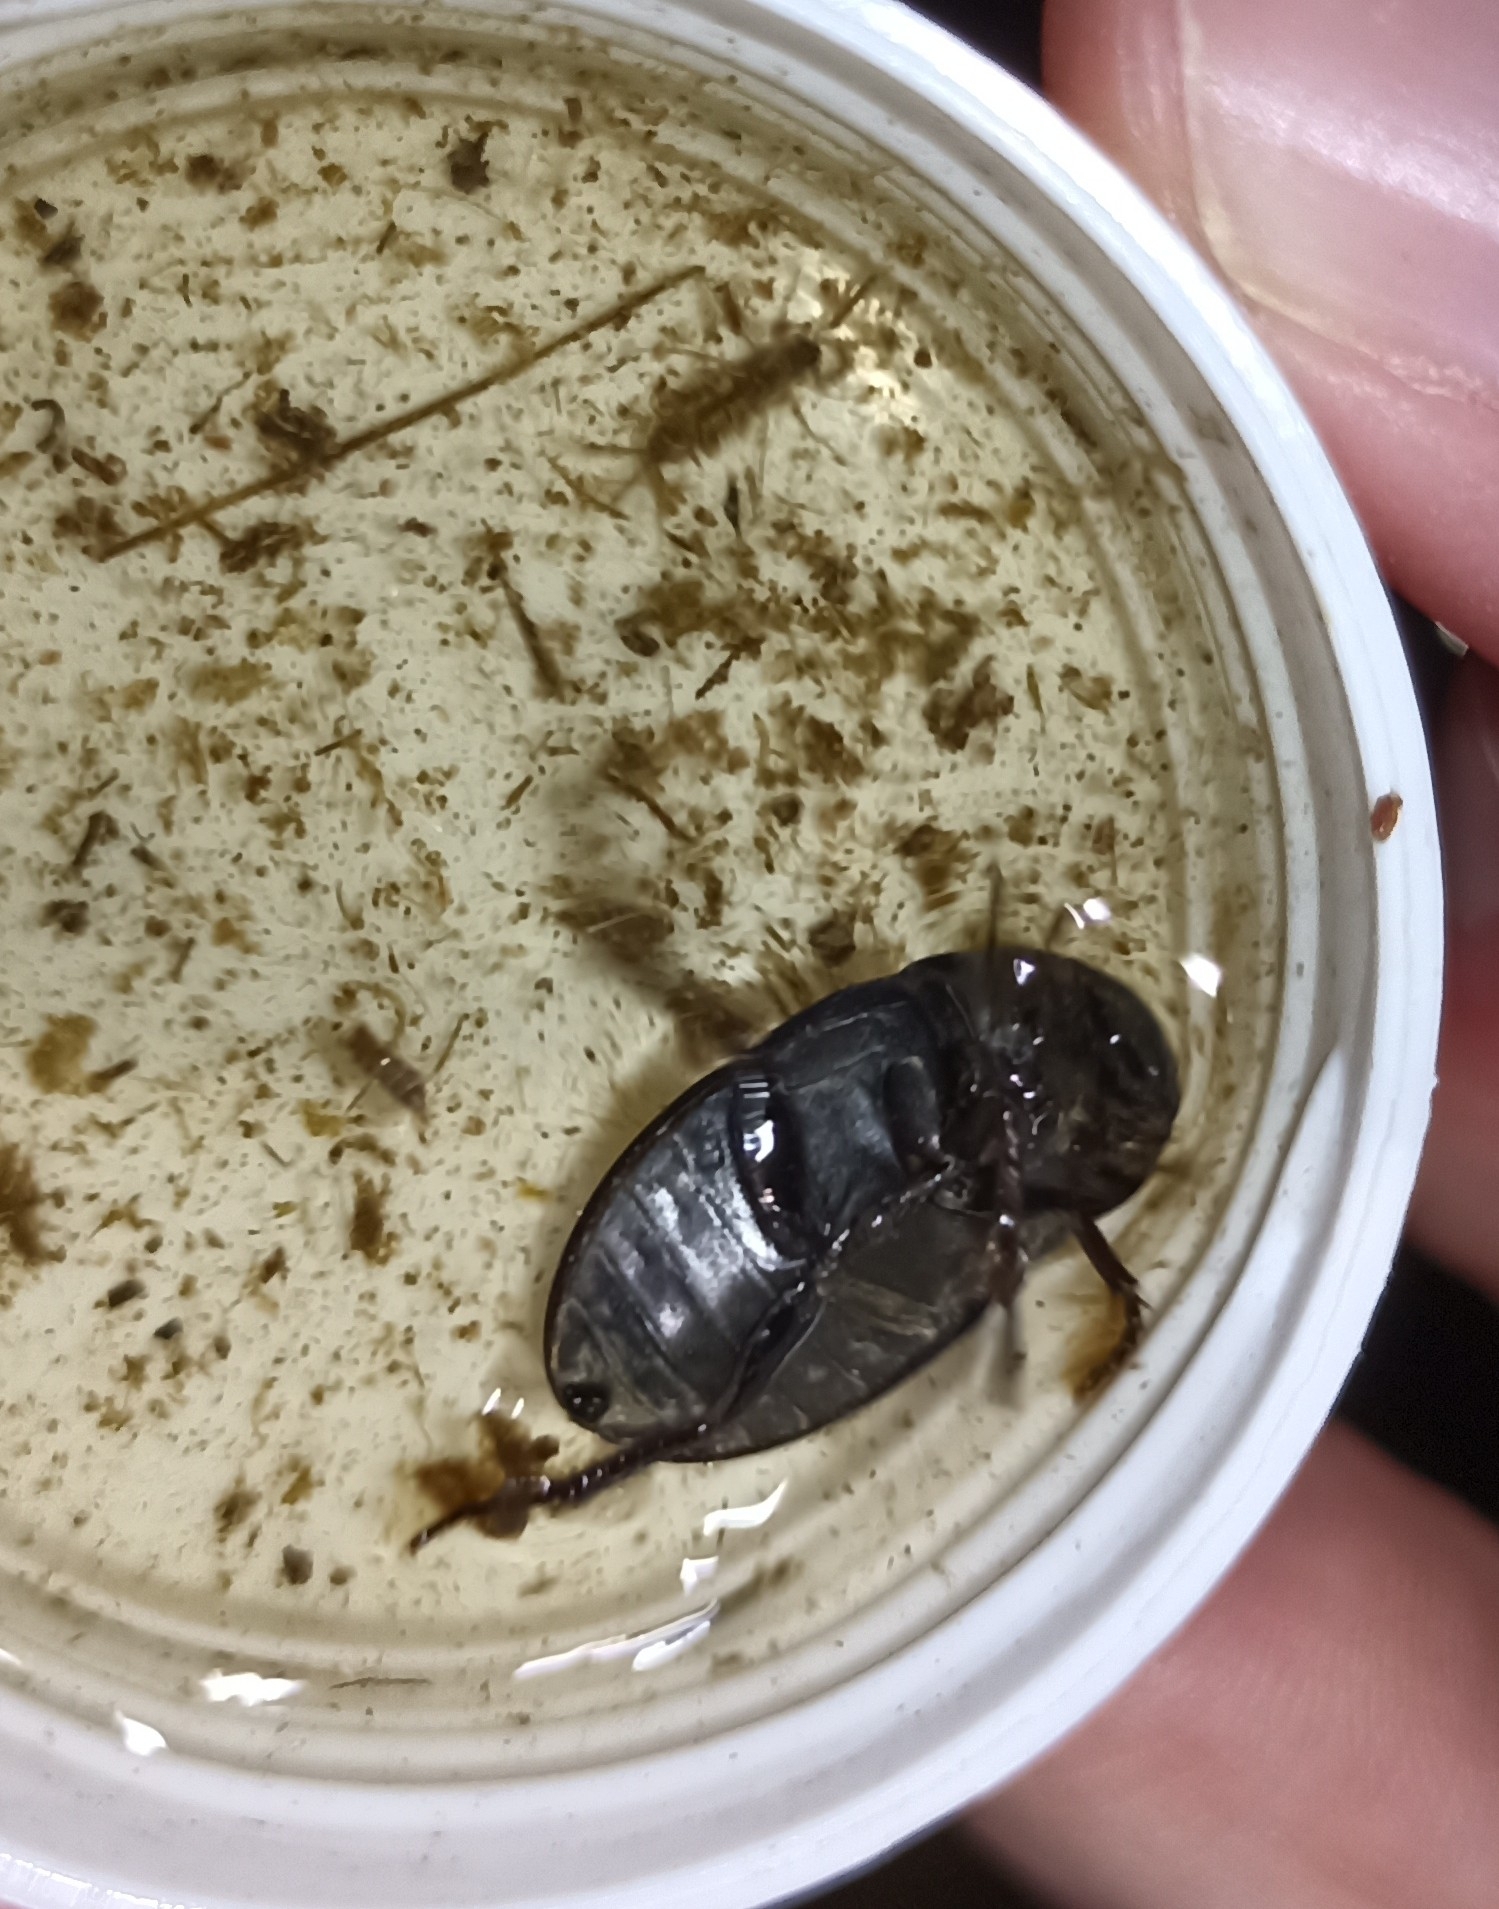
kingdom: Animalia
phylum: Arthropoda
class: Insecta
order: Coleoptera
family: Hydrophilidae
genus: Hydrochara
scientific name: Hydrochara caraboides
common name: Lesser silver water beetle
